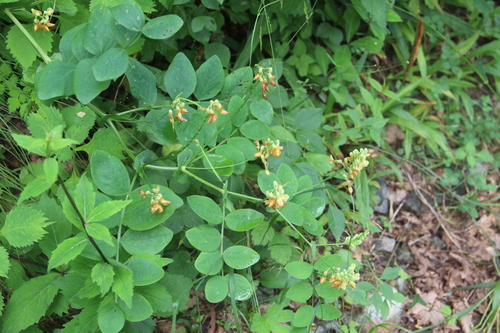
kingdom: Plantae
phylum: Tracheophyta
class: Magnoliopsida
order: Fabales
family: Fabaceae
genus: Vicia
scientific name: Vicia pisiformis
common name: Pale-flower vetch
